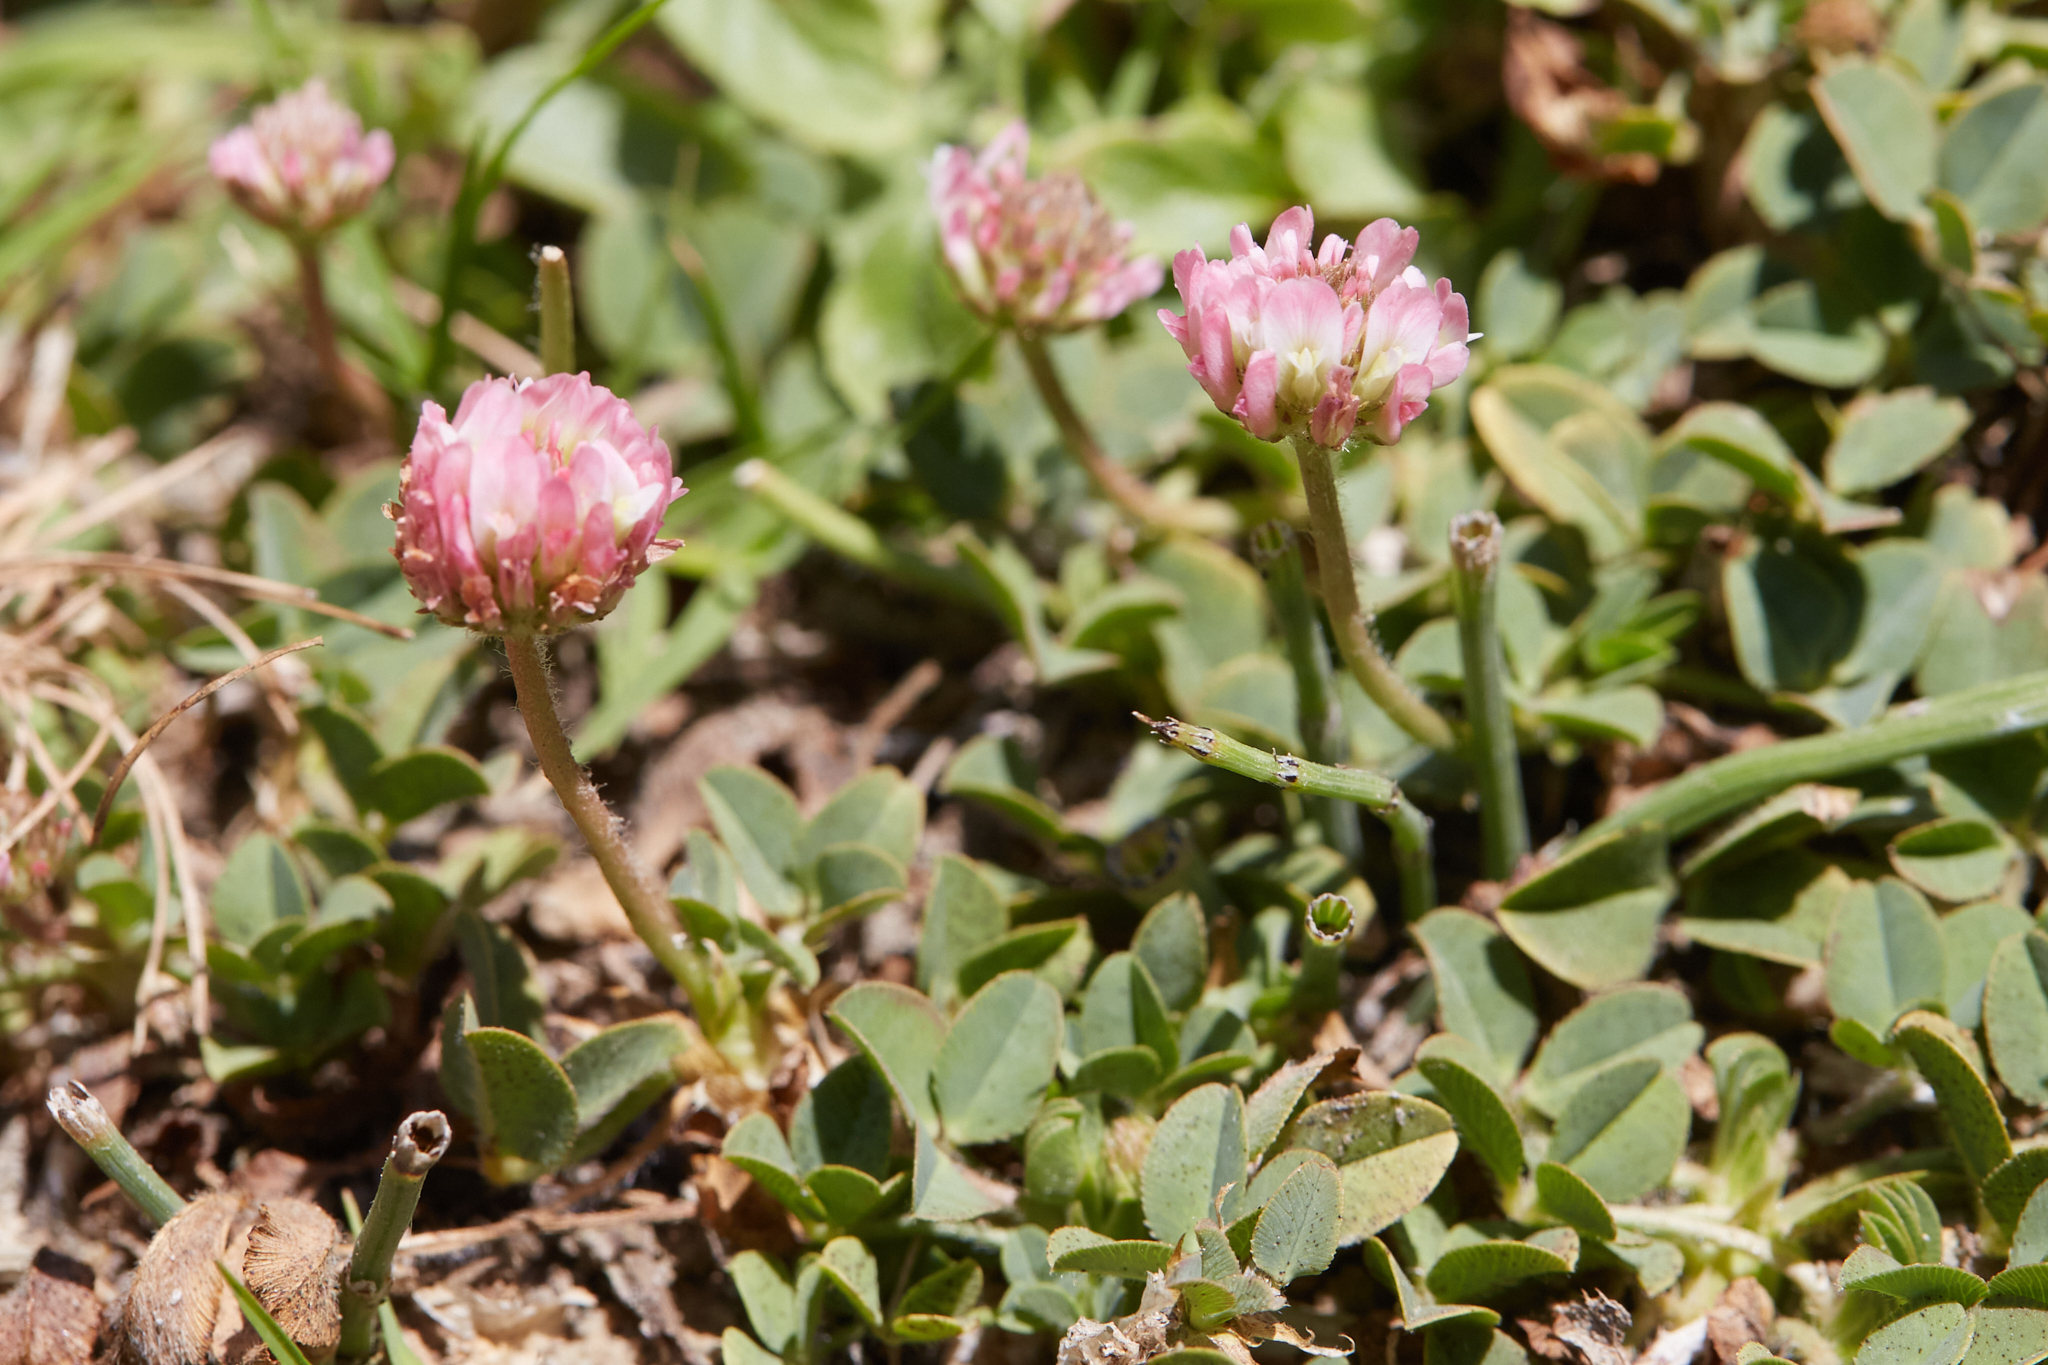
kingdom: Plantae
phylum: Tracheophyta
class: Magnoliopsida
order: Fabales
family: Fabaceae
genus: Trifolium
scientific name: Trifolium fragiferum
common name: Strawberry clover
